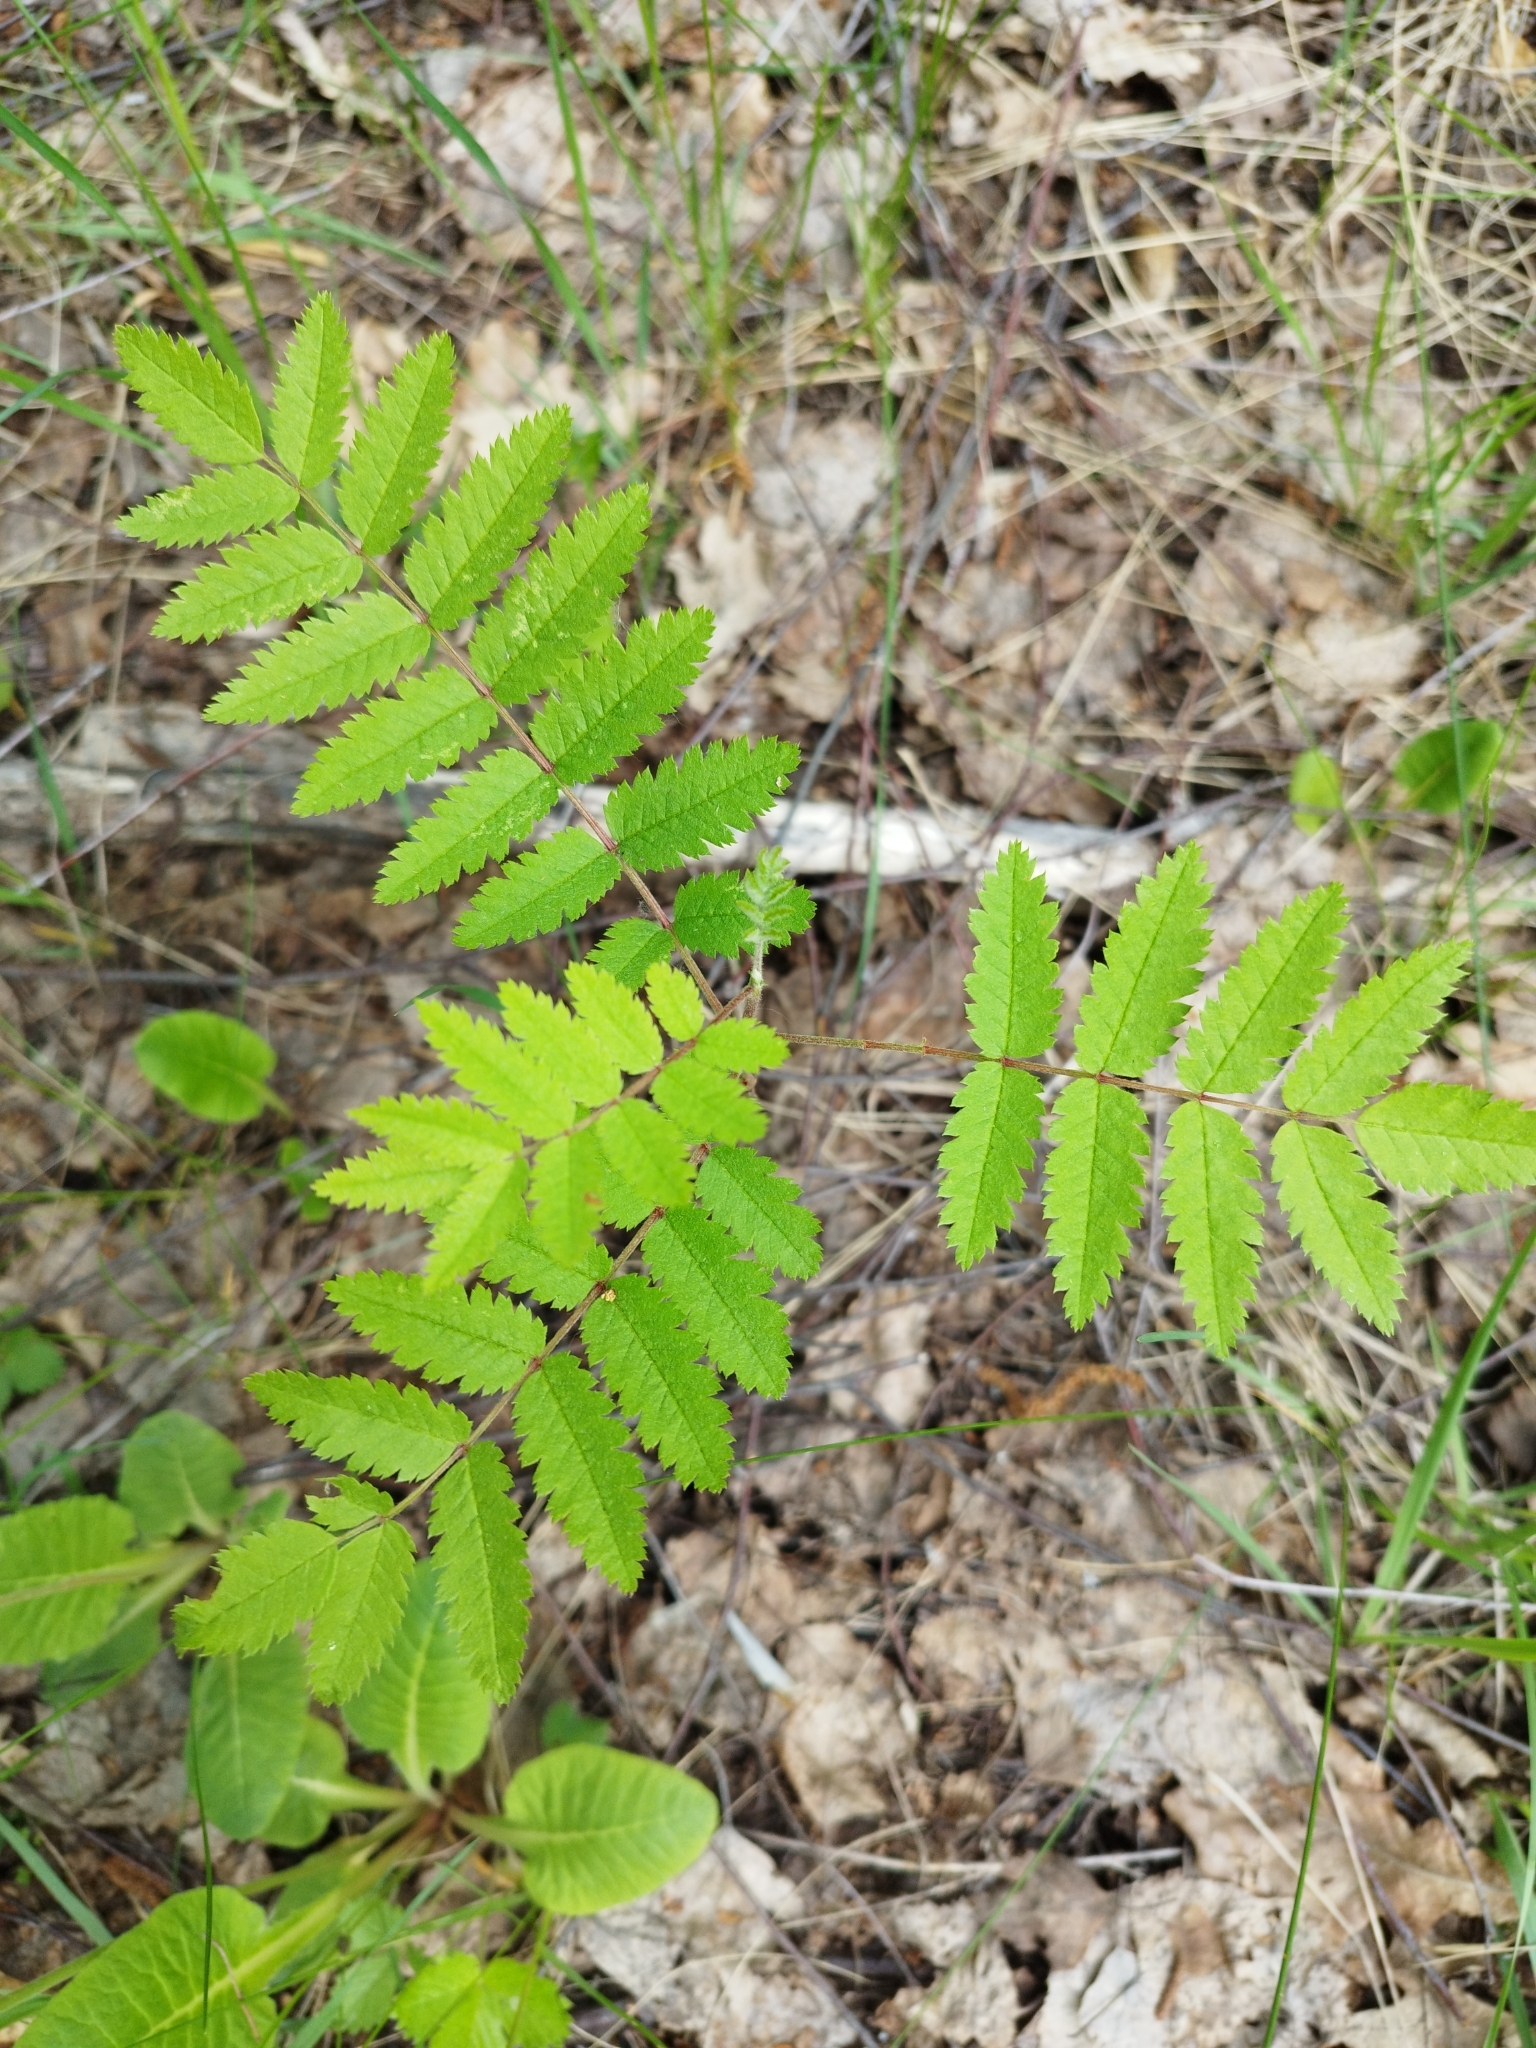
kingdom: Plantae
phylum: Tracheophyta
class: Magnoliopsida
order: Rosales
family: Rosaceae
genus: Sorbus
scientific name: Sorbus aucuparia
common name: Rowan
